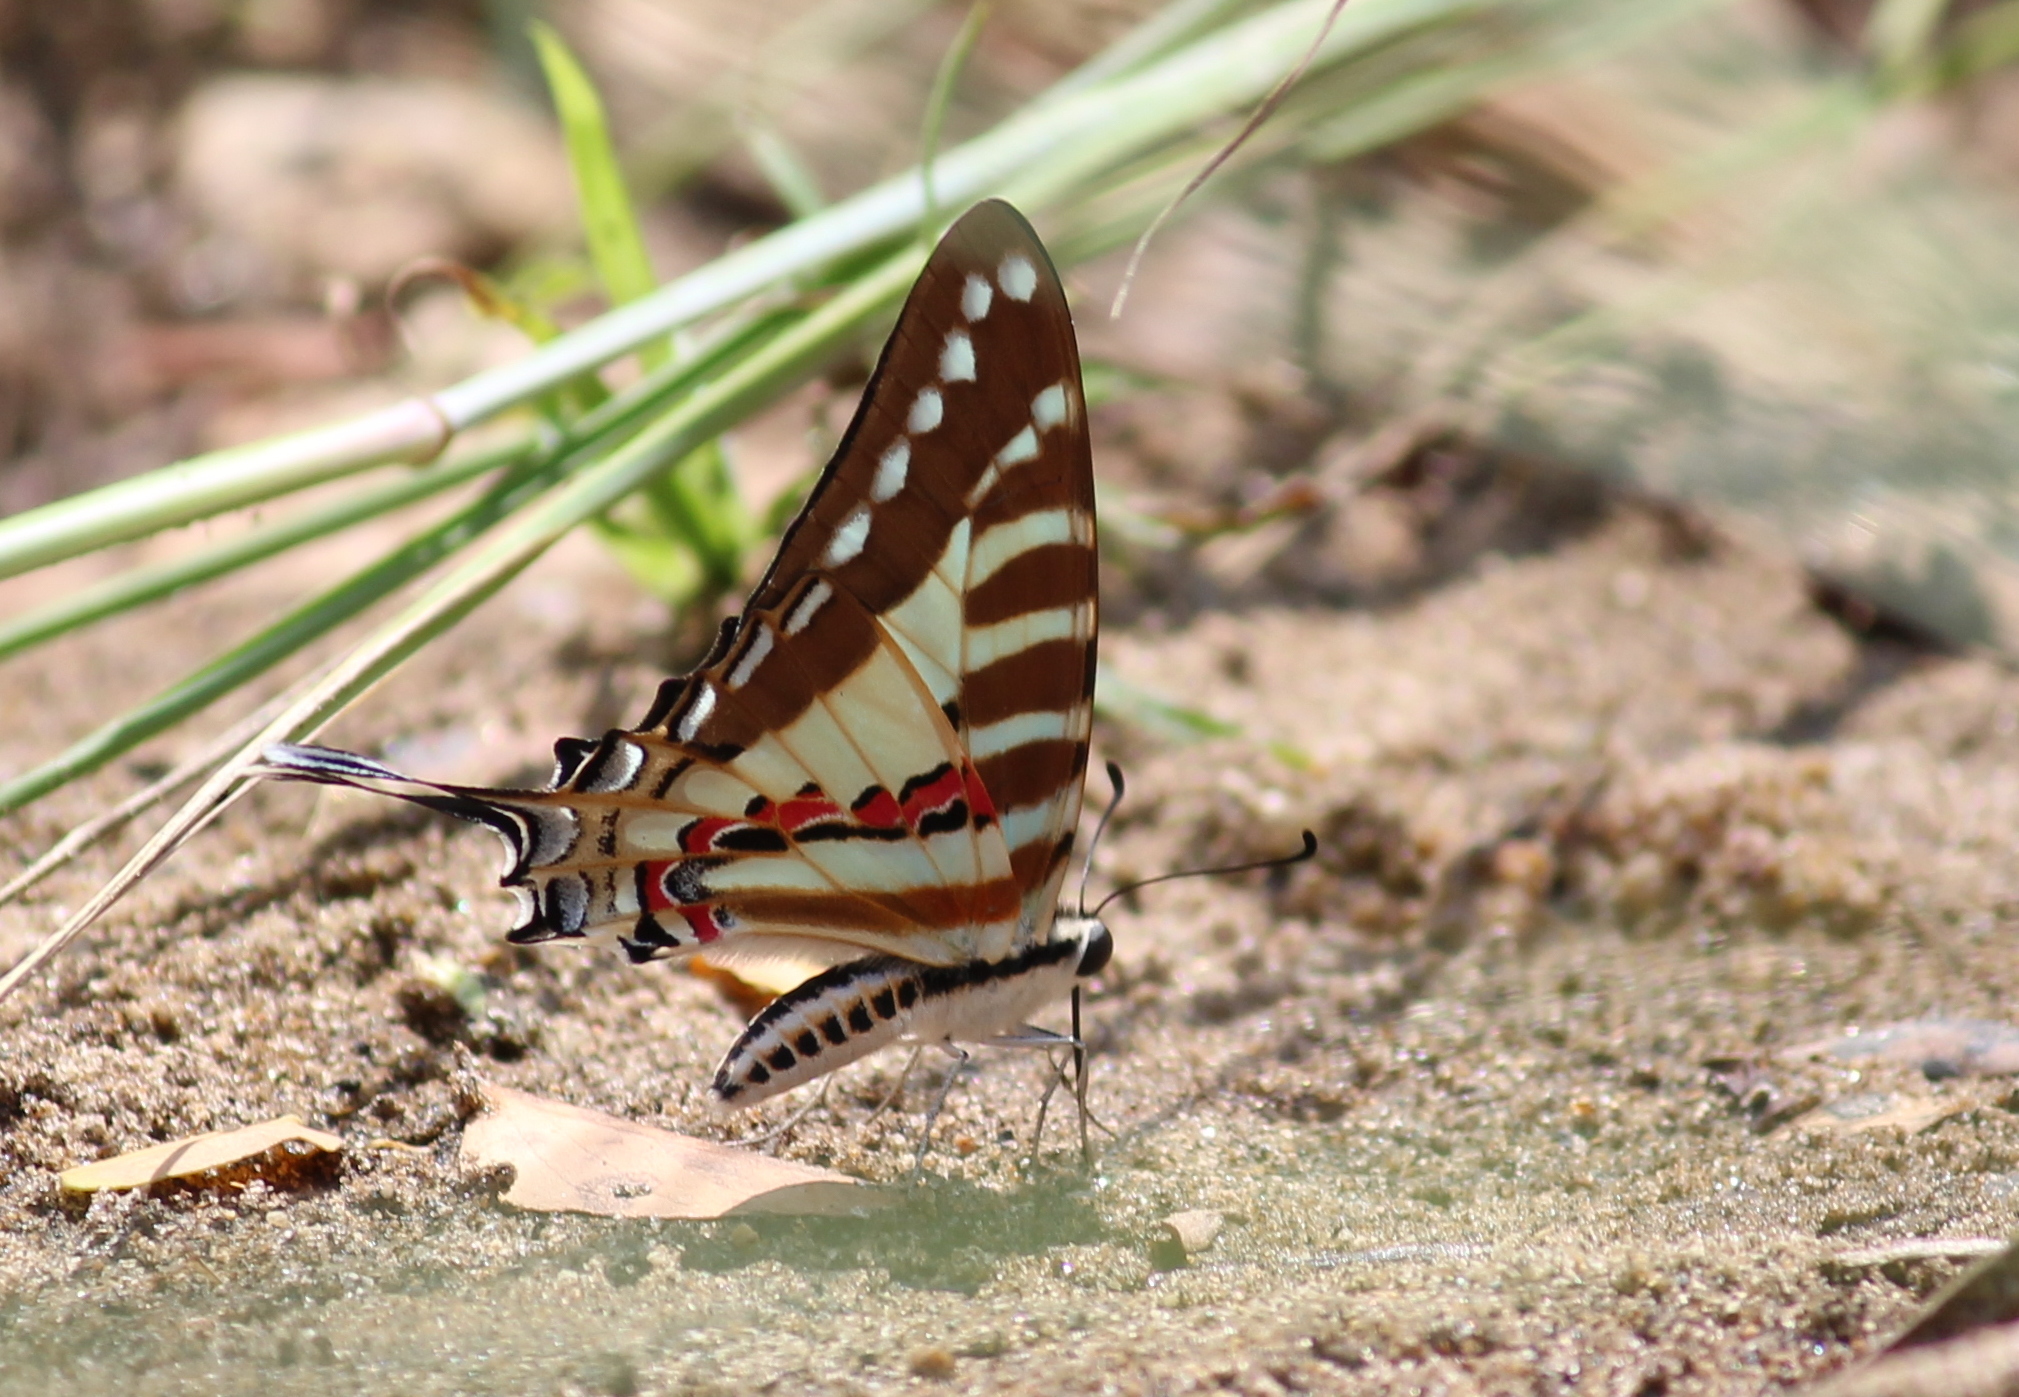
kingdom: Animalia
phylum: Arthropoda
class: Insecta
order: Lepidoptera
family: Papilionidae
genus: Graphium
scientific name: Graphium nomius
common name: Spot swordtail
